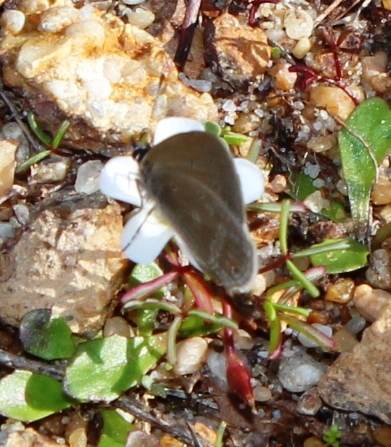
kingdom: Animalia
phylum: Arthropoda
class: Insecta
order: Lepidoptera
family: Lycaenidae
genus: Eicochrysops
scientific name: Eicochrysops messapus
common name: Cupreous blue
